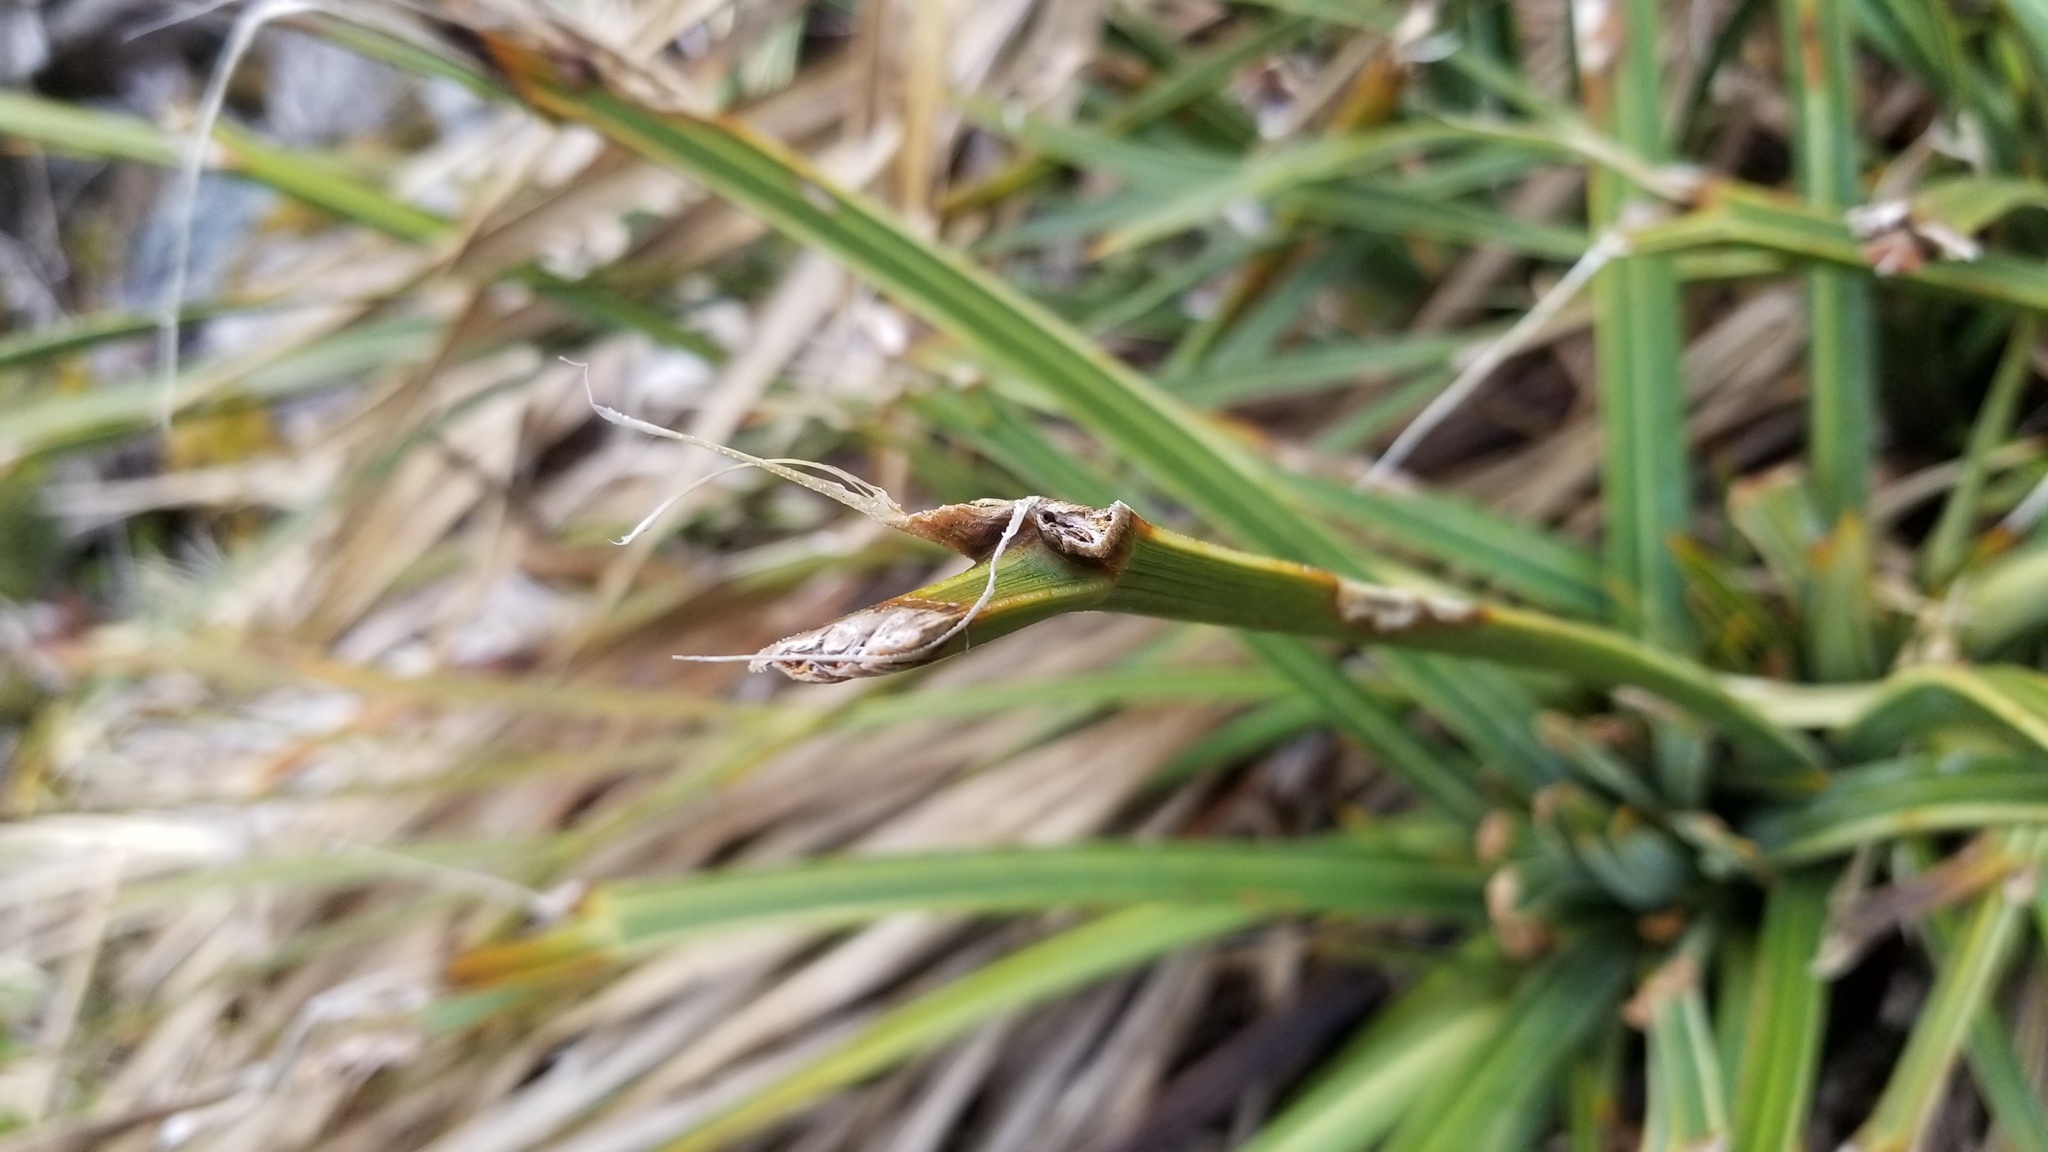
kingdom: Plantae
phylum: Tracheophyta
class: Magnoliopsida
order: Apiales
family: Apiaceae
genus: Aciphylla
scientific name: Aciphylla colensoi
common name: Colenso's spaniard
